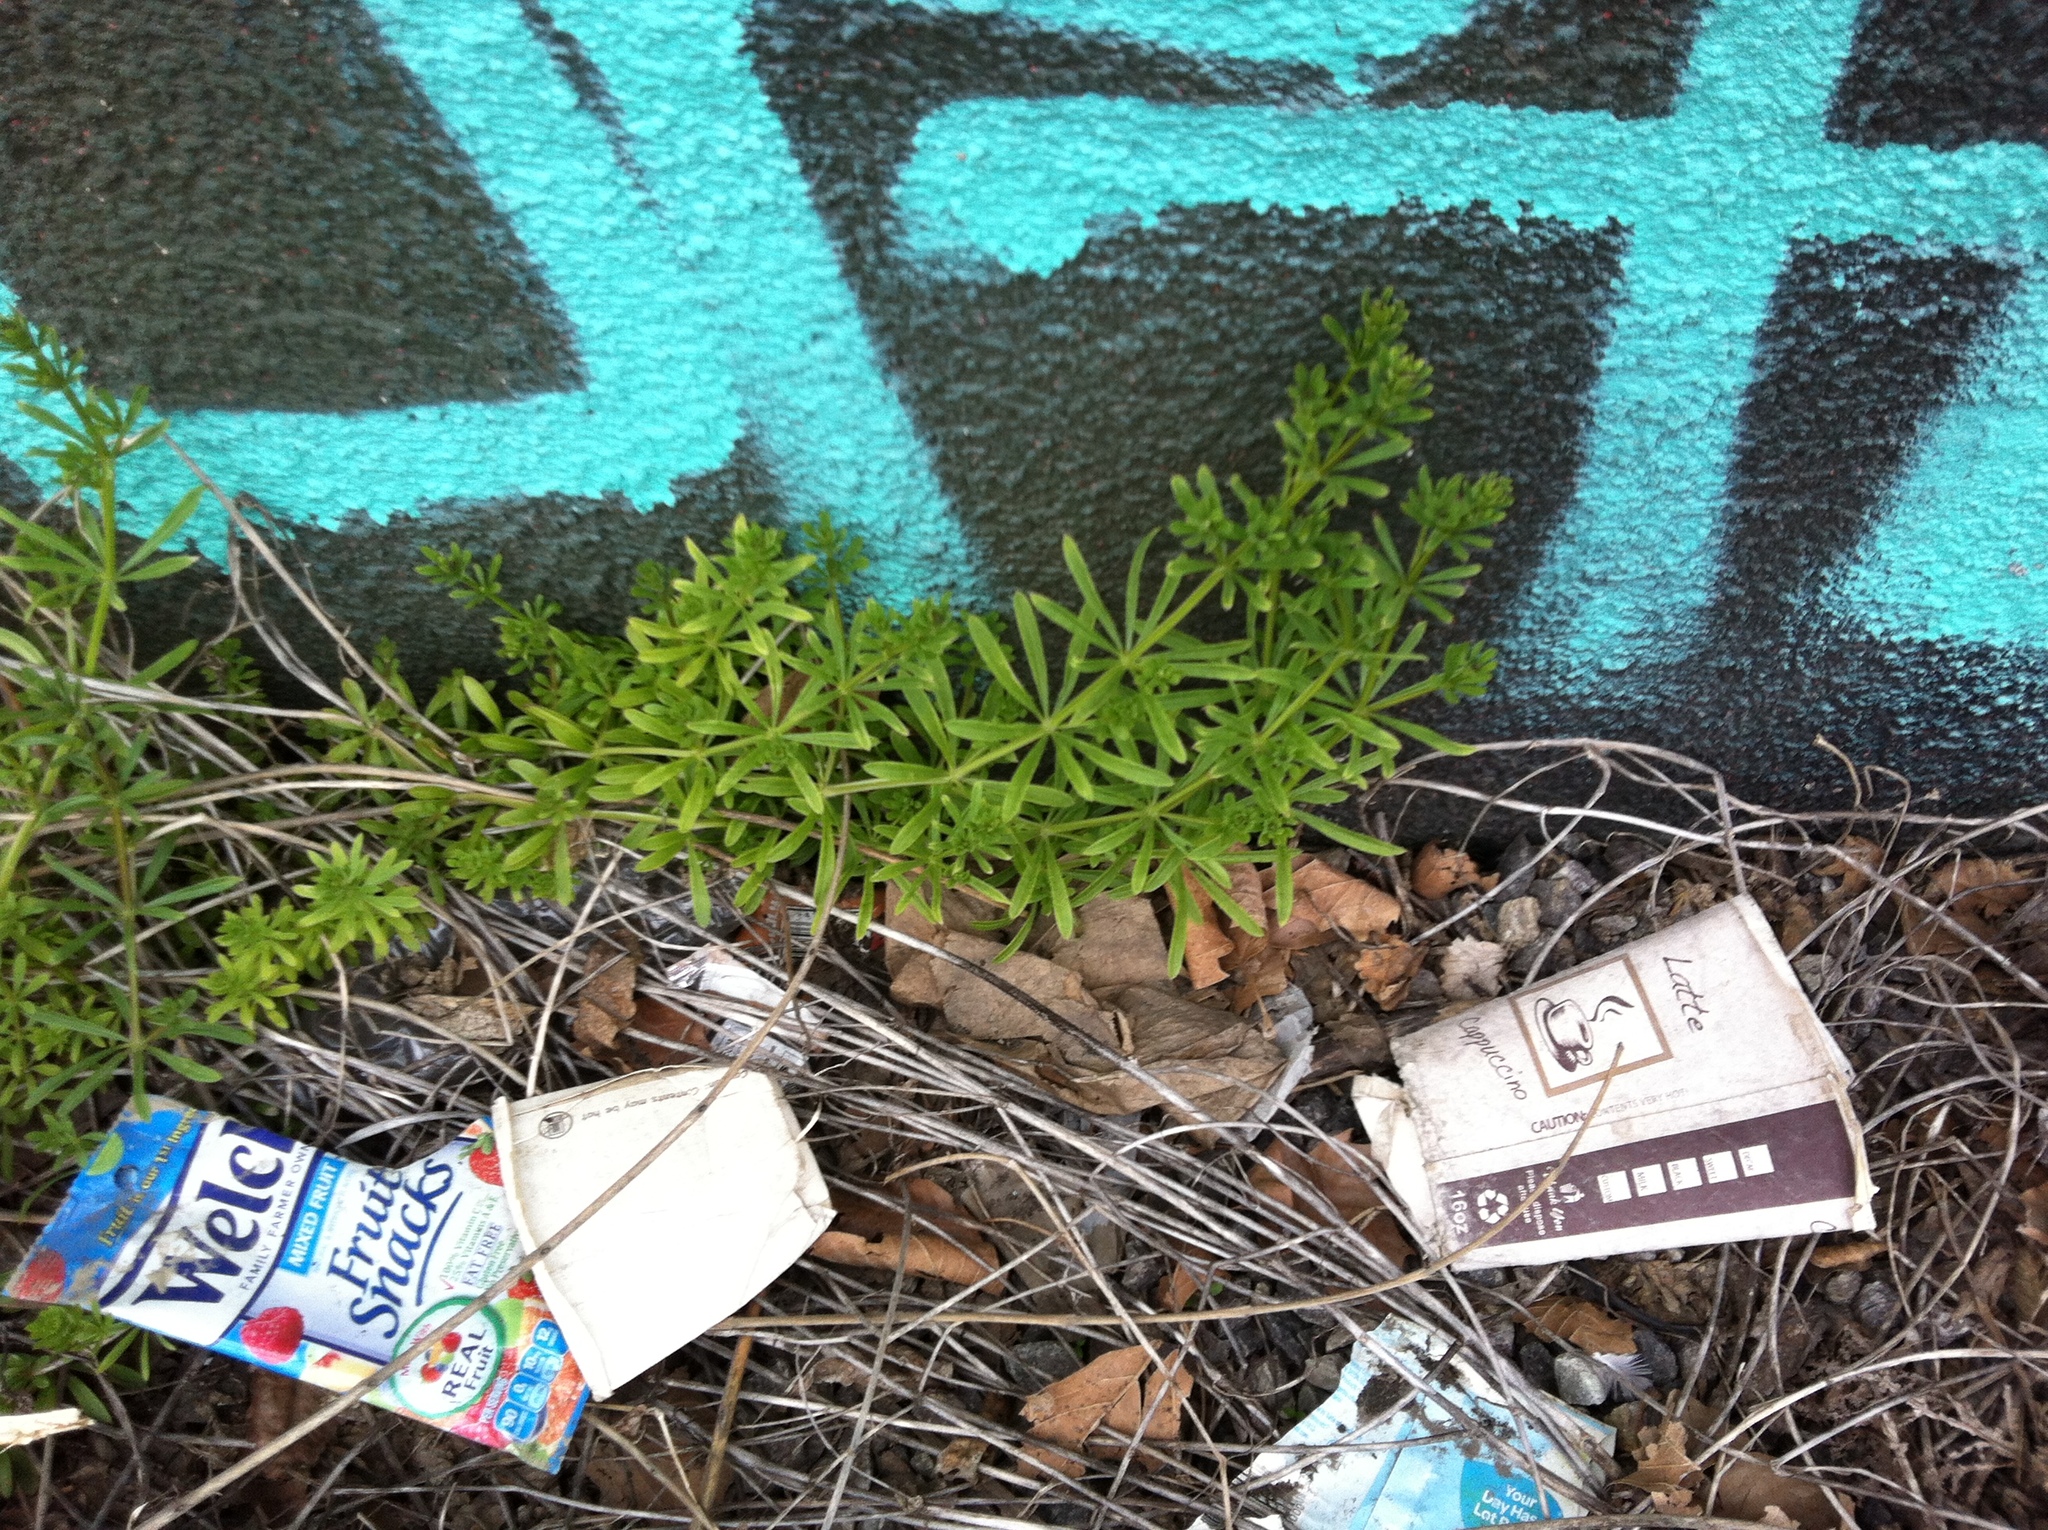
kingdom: Plantae
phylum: Tracheophyta
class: Magnoliopsida
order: Gentianales
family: Rubiaceae
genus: Galium
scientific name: Galium aparine
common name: Cleavers
